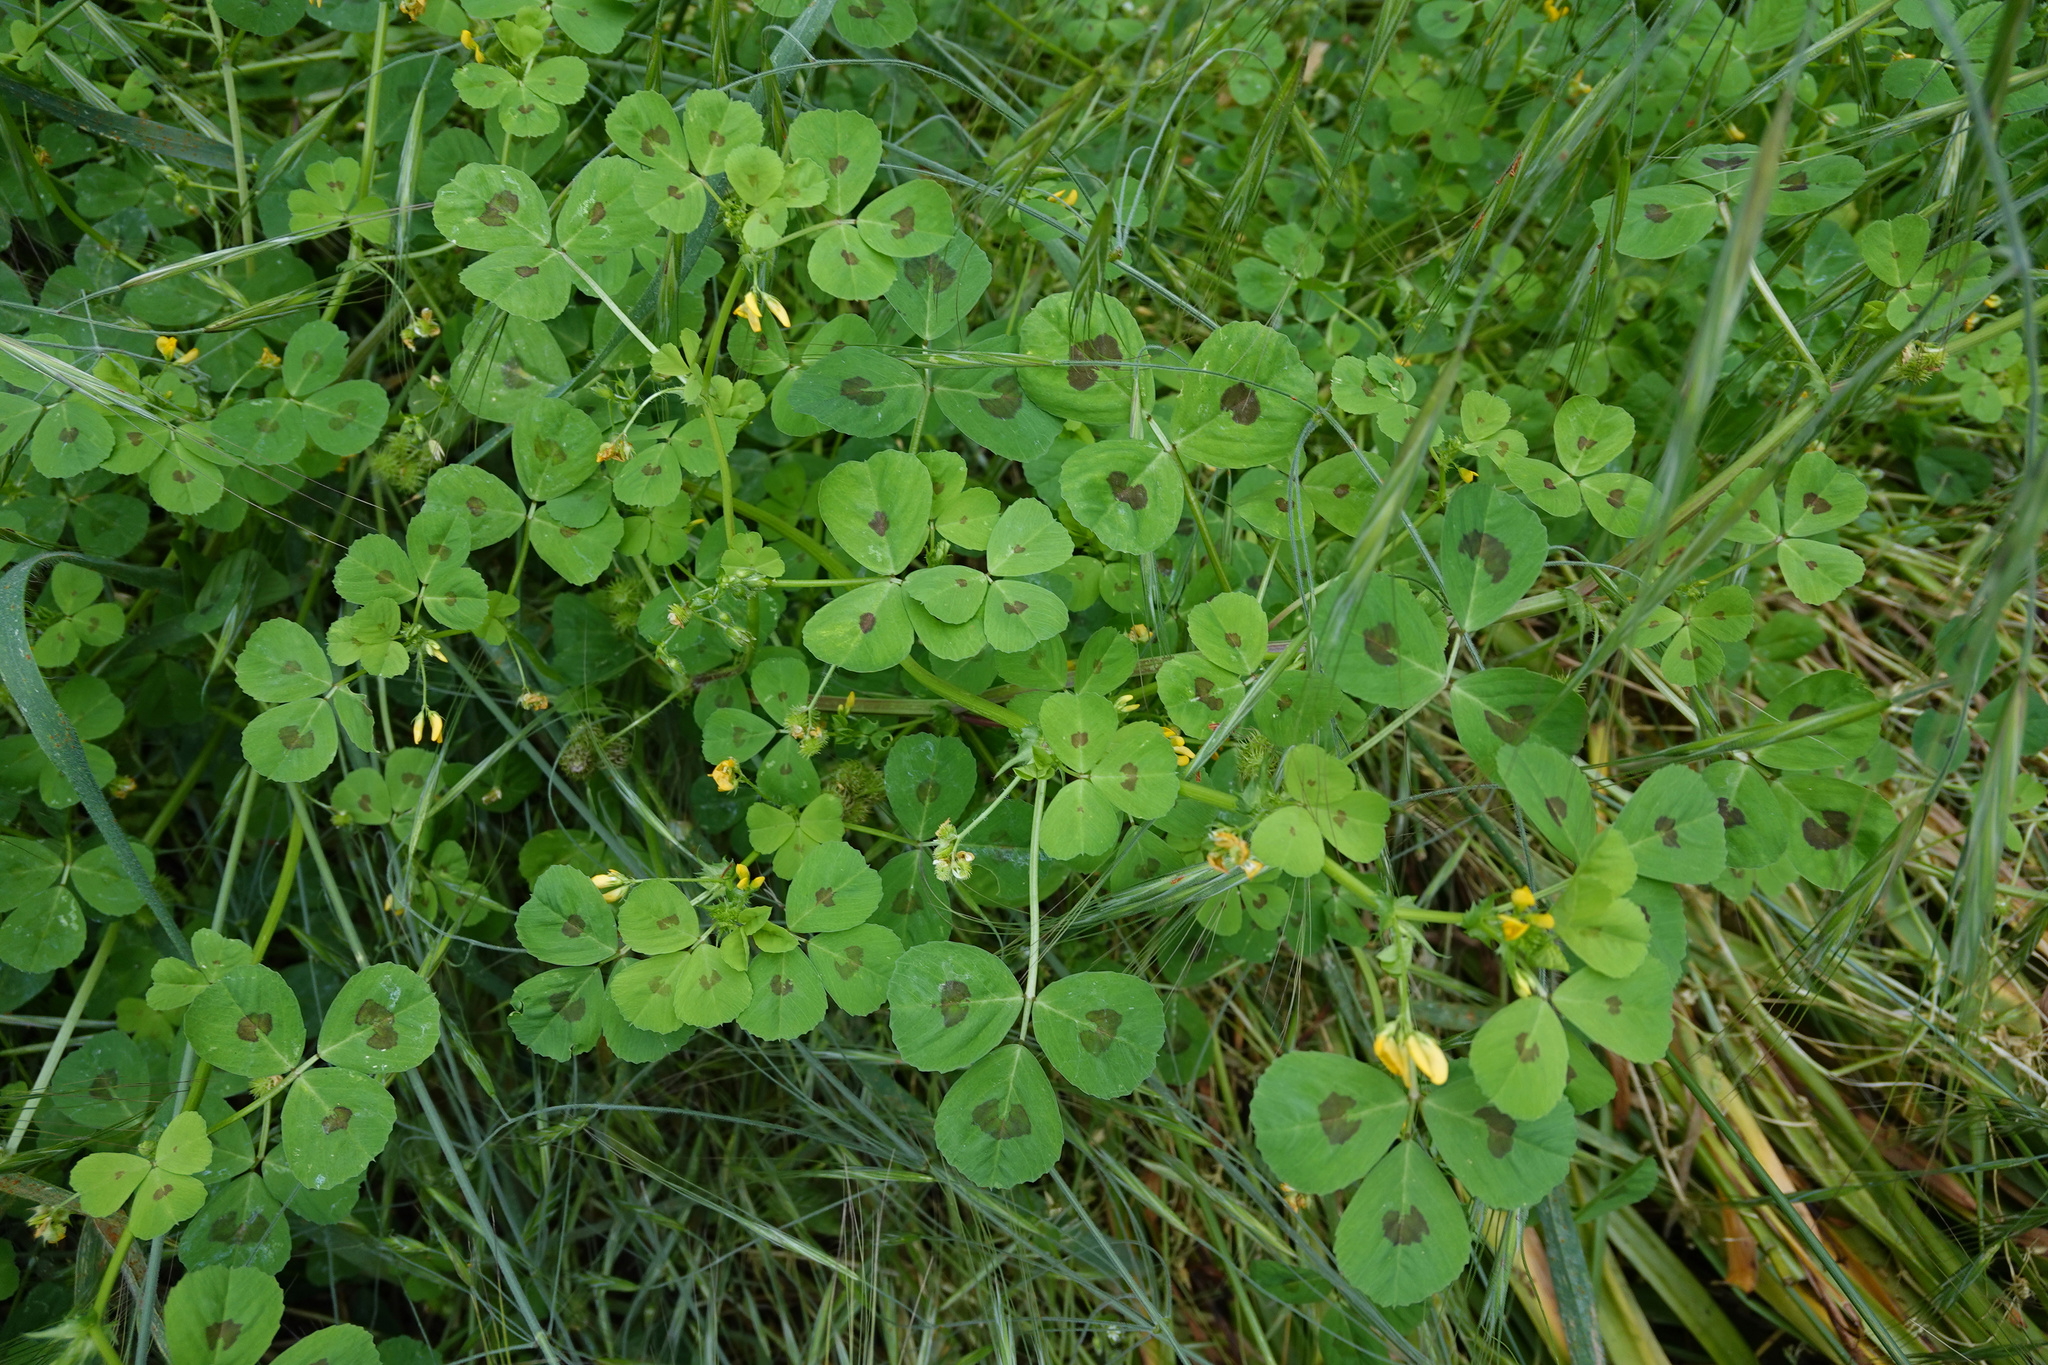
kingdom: Plantae
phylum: Tracheophyta
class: Magnoliopsida
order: Fabales
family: Fabaceae
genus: Medicago
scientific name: Medicago arabica
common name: Spotted medick
